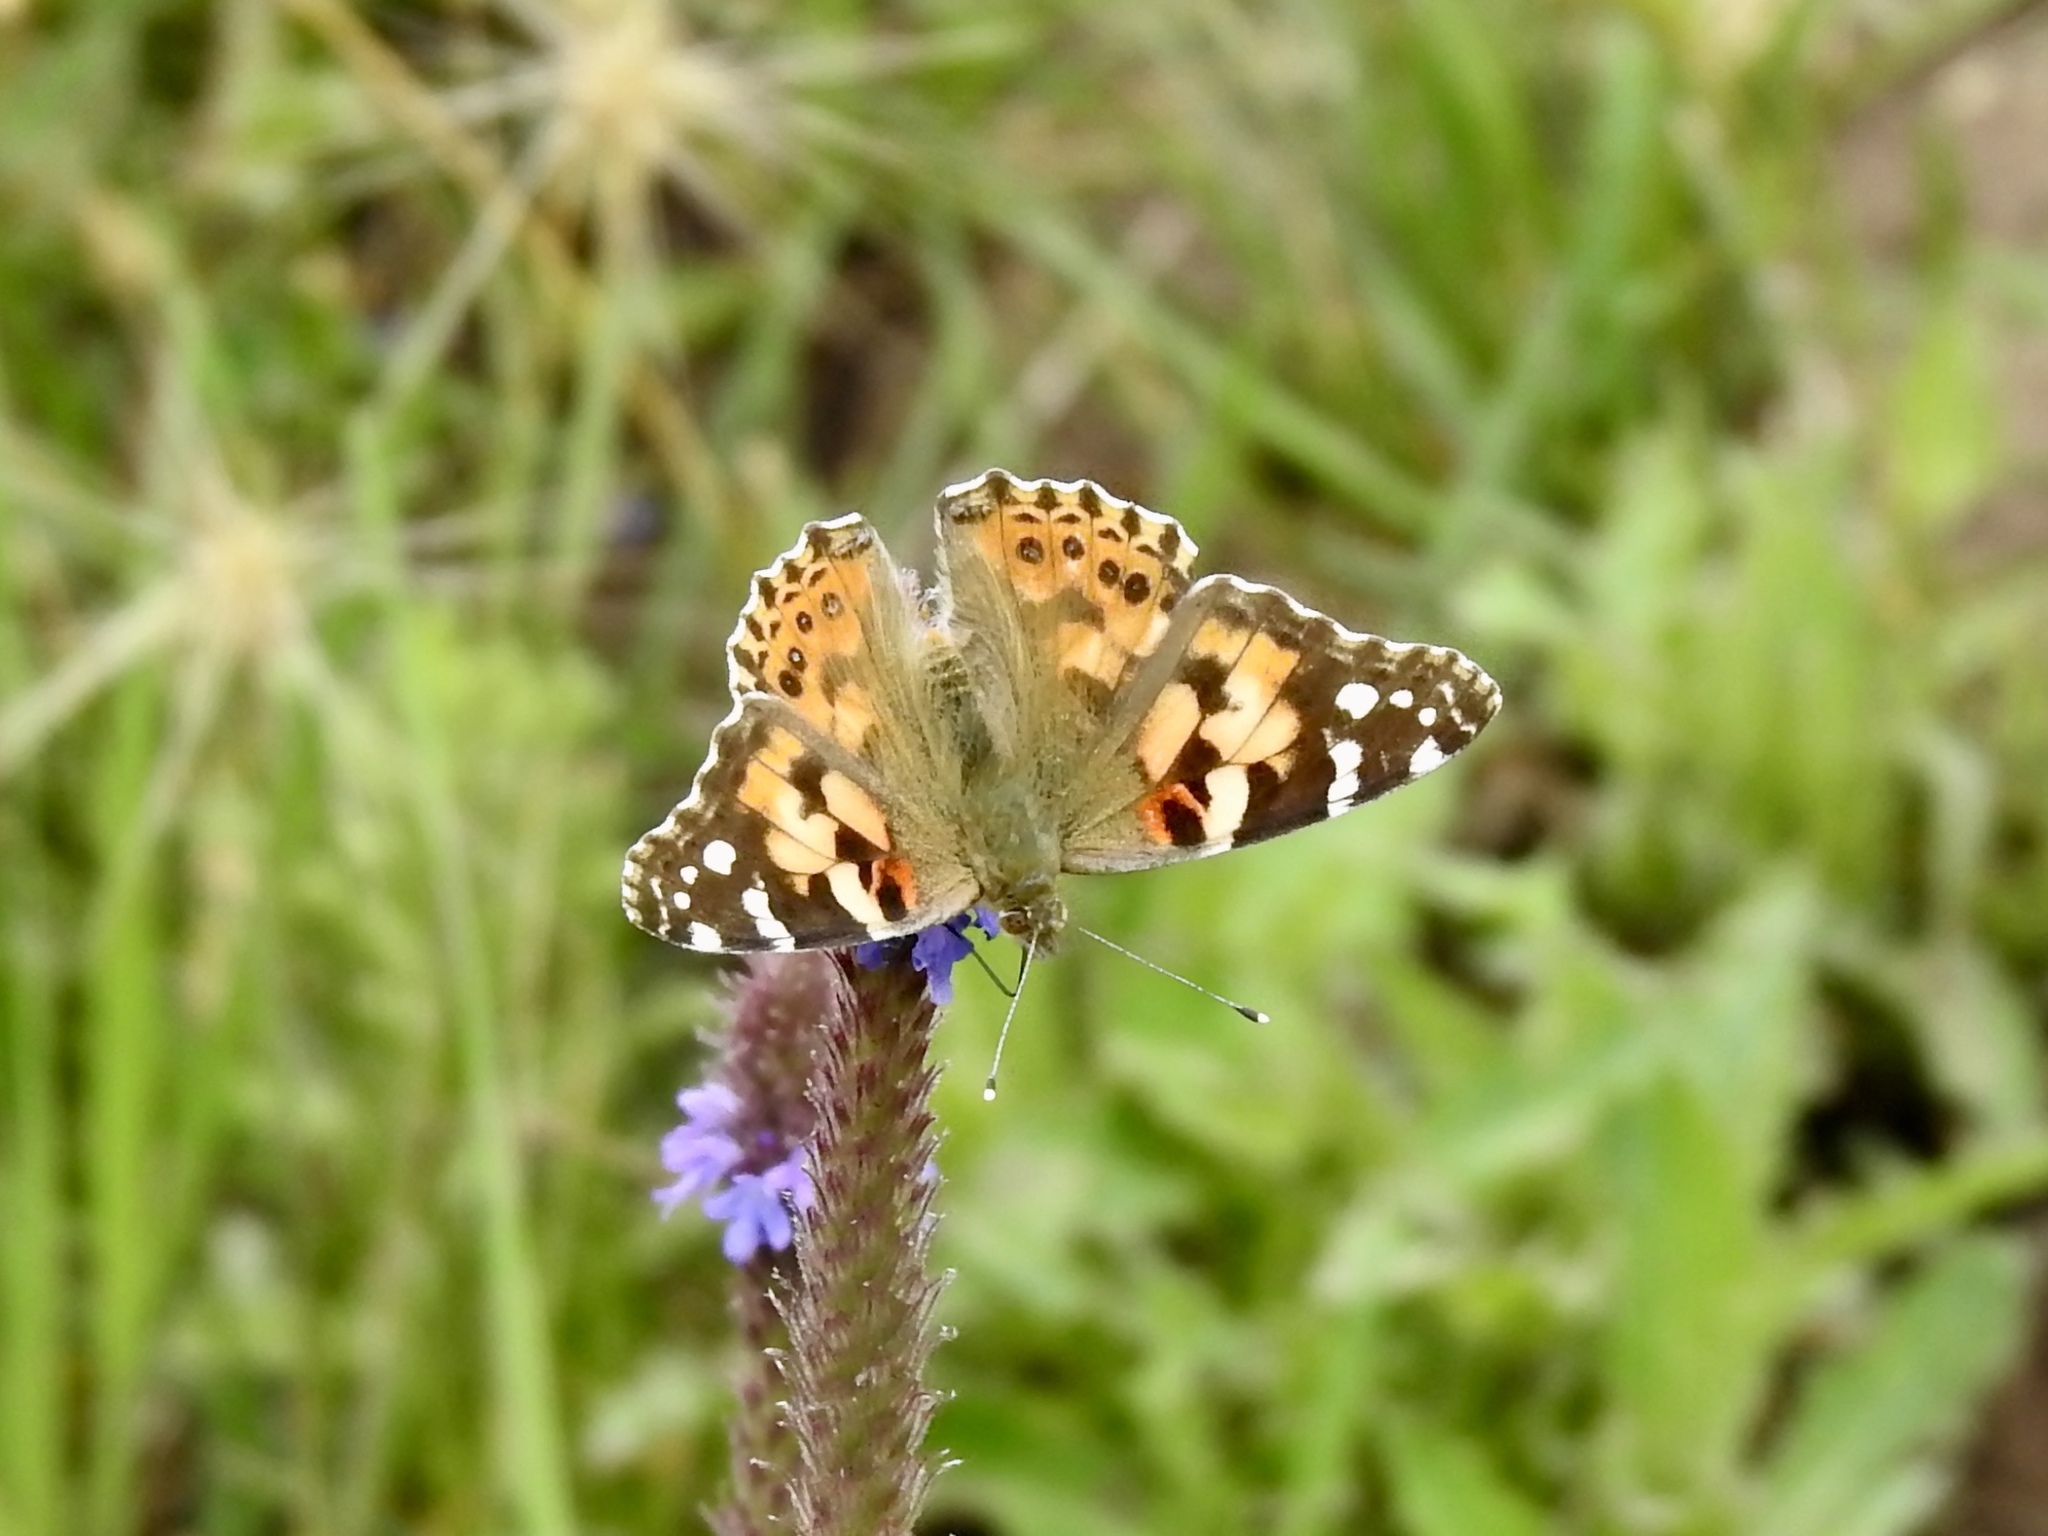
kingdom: Animalia
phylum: Arthropoda
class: Insecta
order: Lepidoptera
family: Nymphalidae
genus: Vanessa
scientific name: Vanessa cardui
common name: Painted lady
